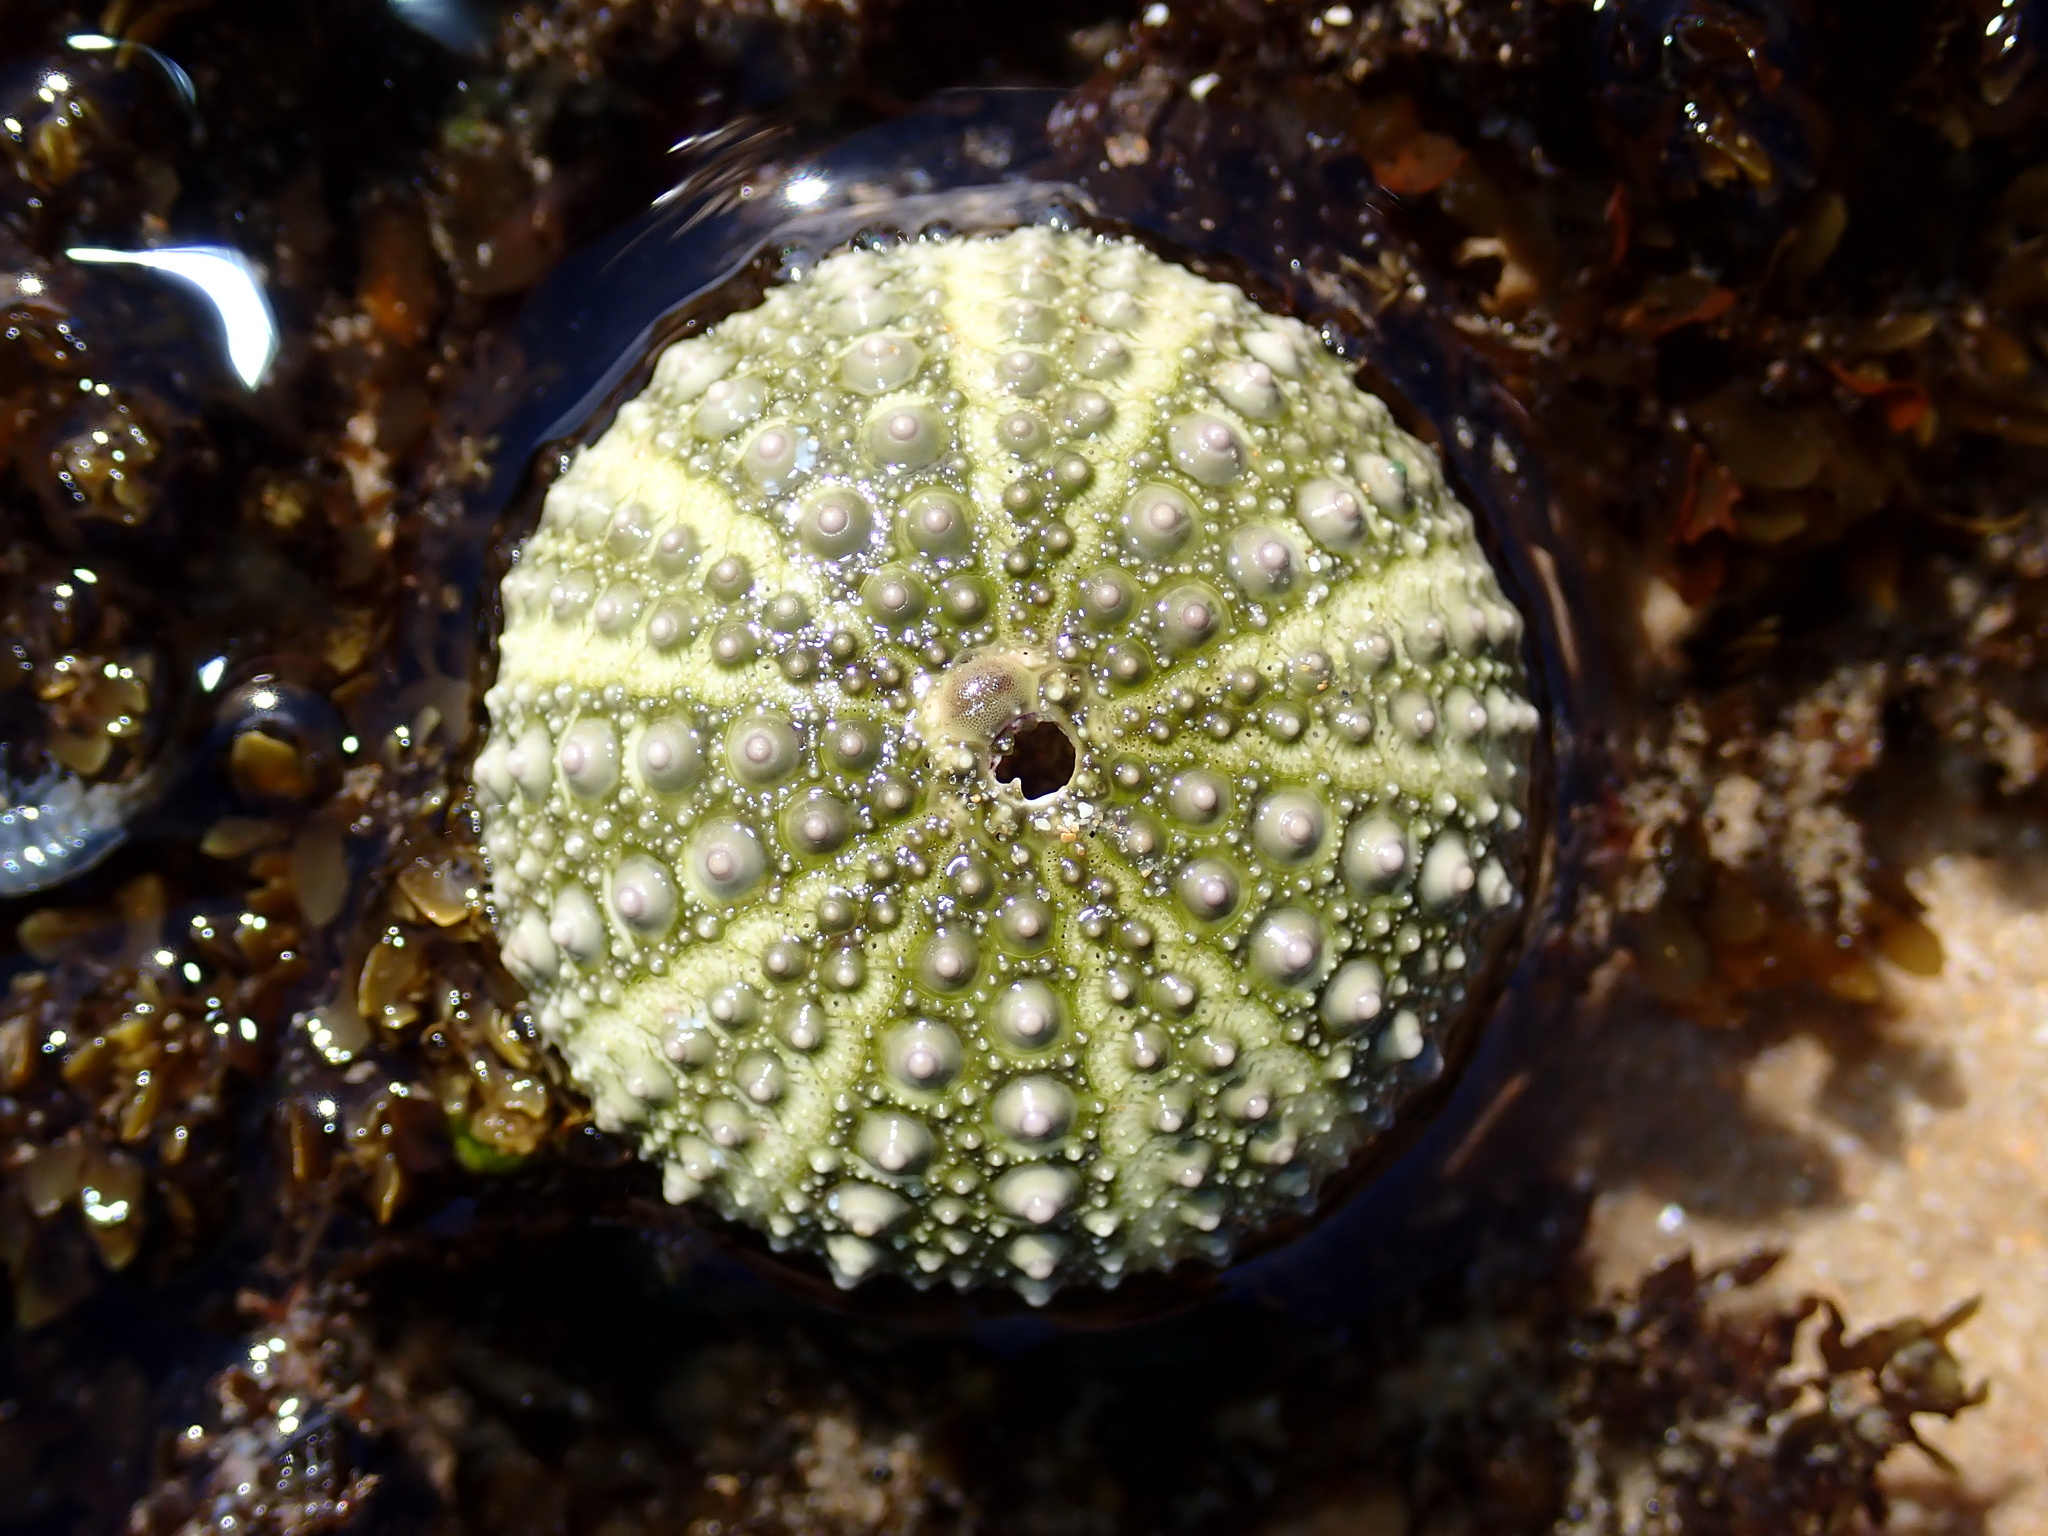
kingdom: Animalia
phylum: Echinodermata
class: Echinoidea
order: Camarodonta
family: Echinometridae
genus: Heliocidaris
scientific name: Heliocidaris erythrogramma
